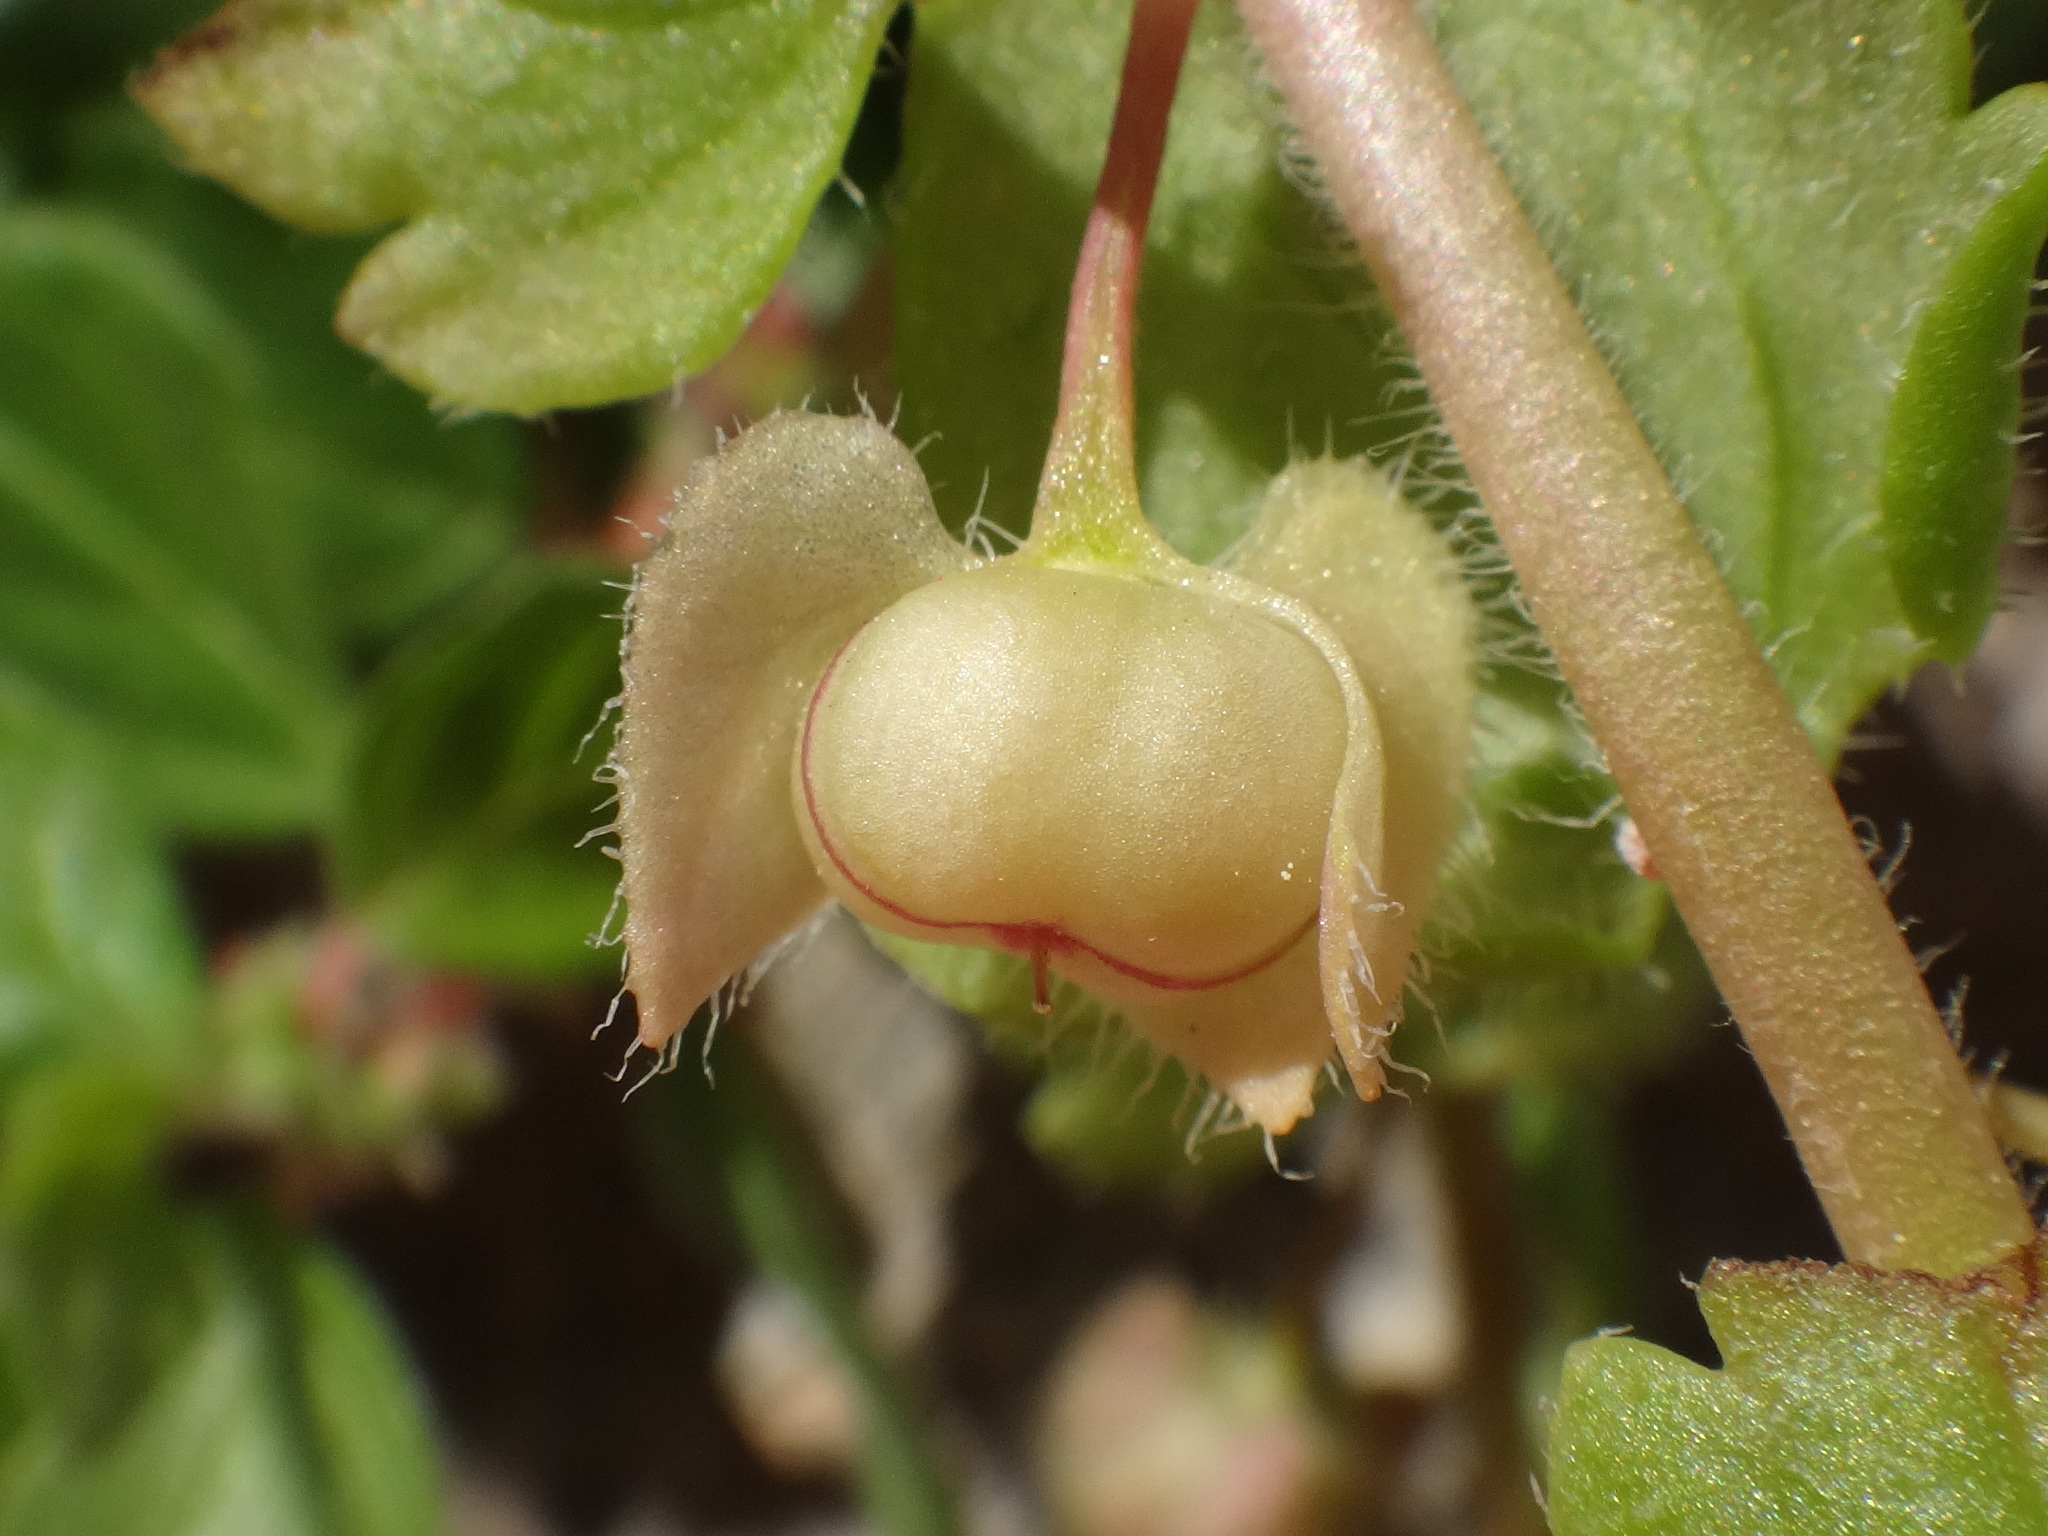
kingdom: Plantae
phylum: Tracheophyta
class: Magnoliopsida
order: Lamiales
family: Plantaginaceae
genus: Veronica
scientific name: Veronica hederifolia
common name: Ivy-leaved speedwell
